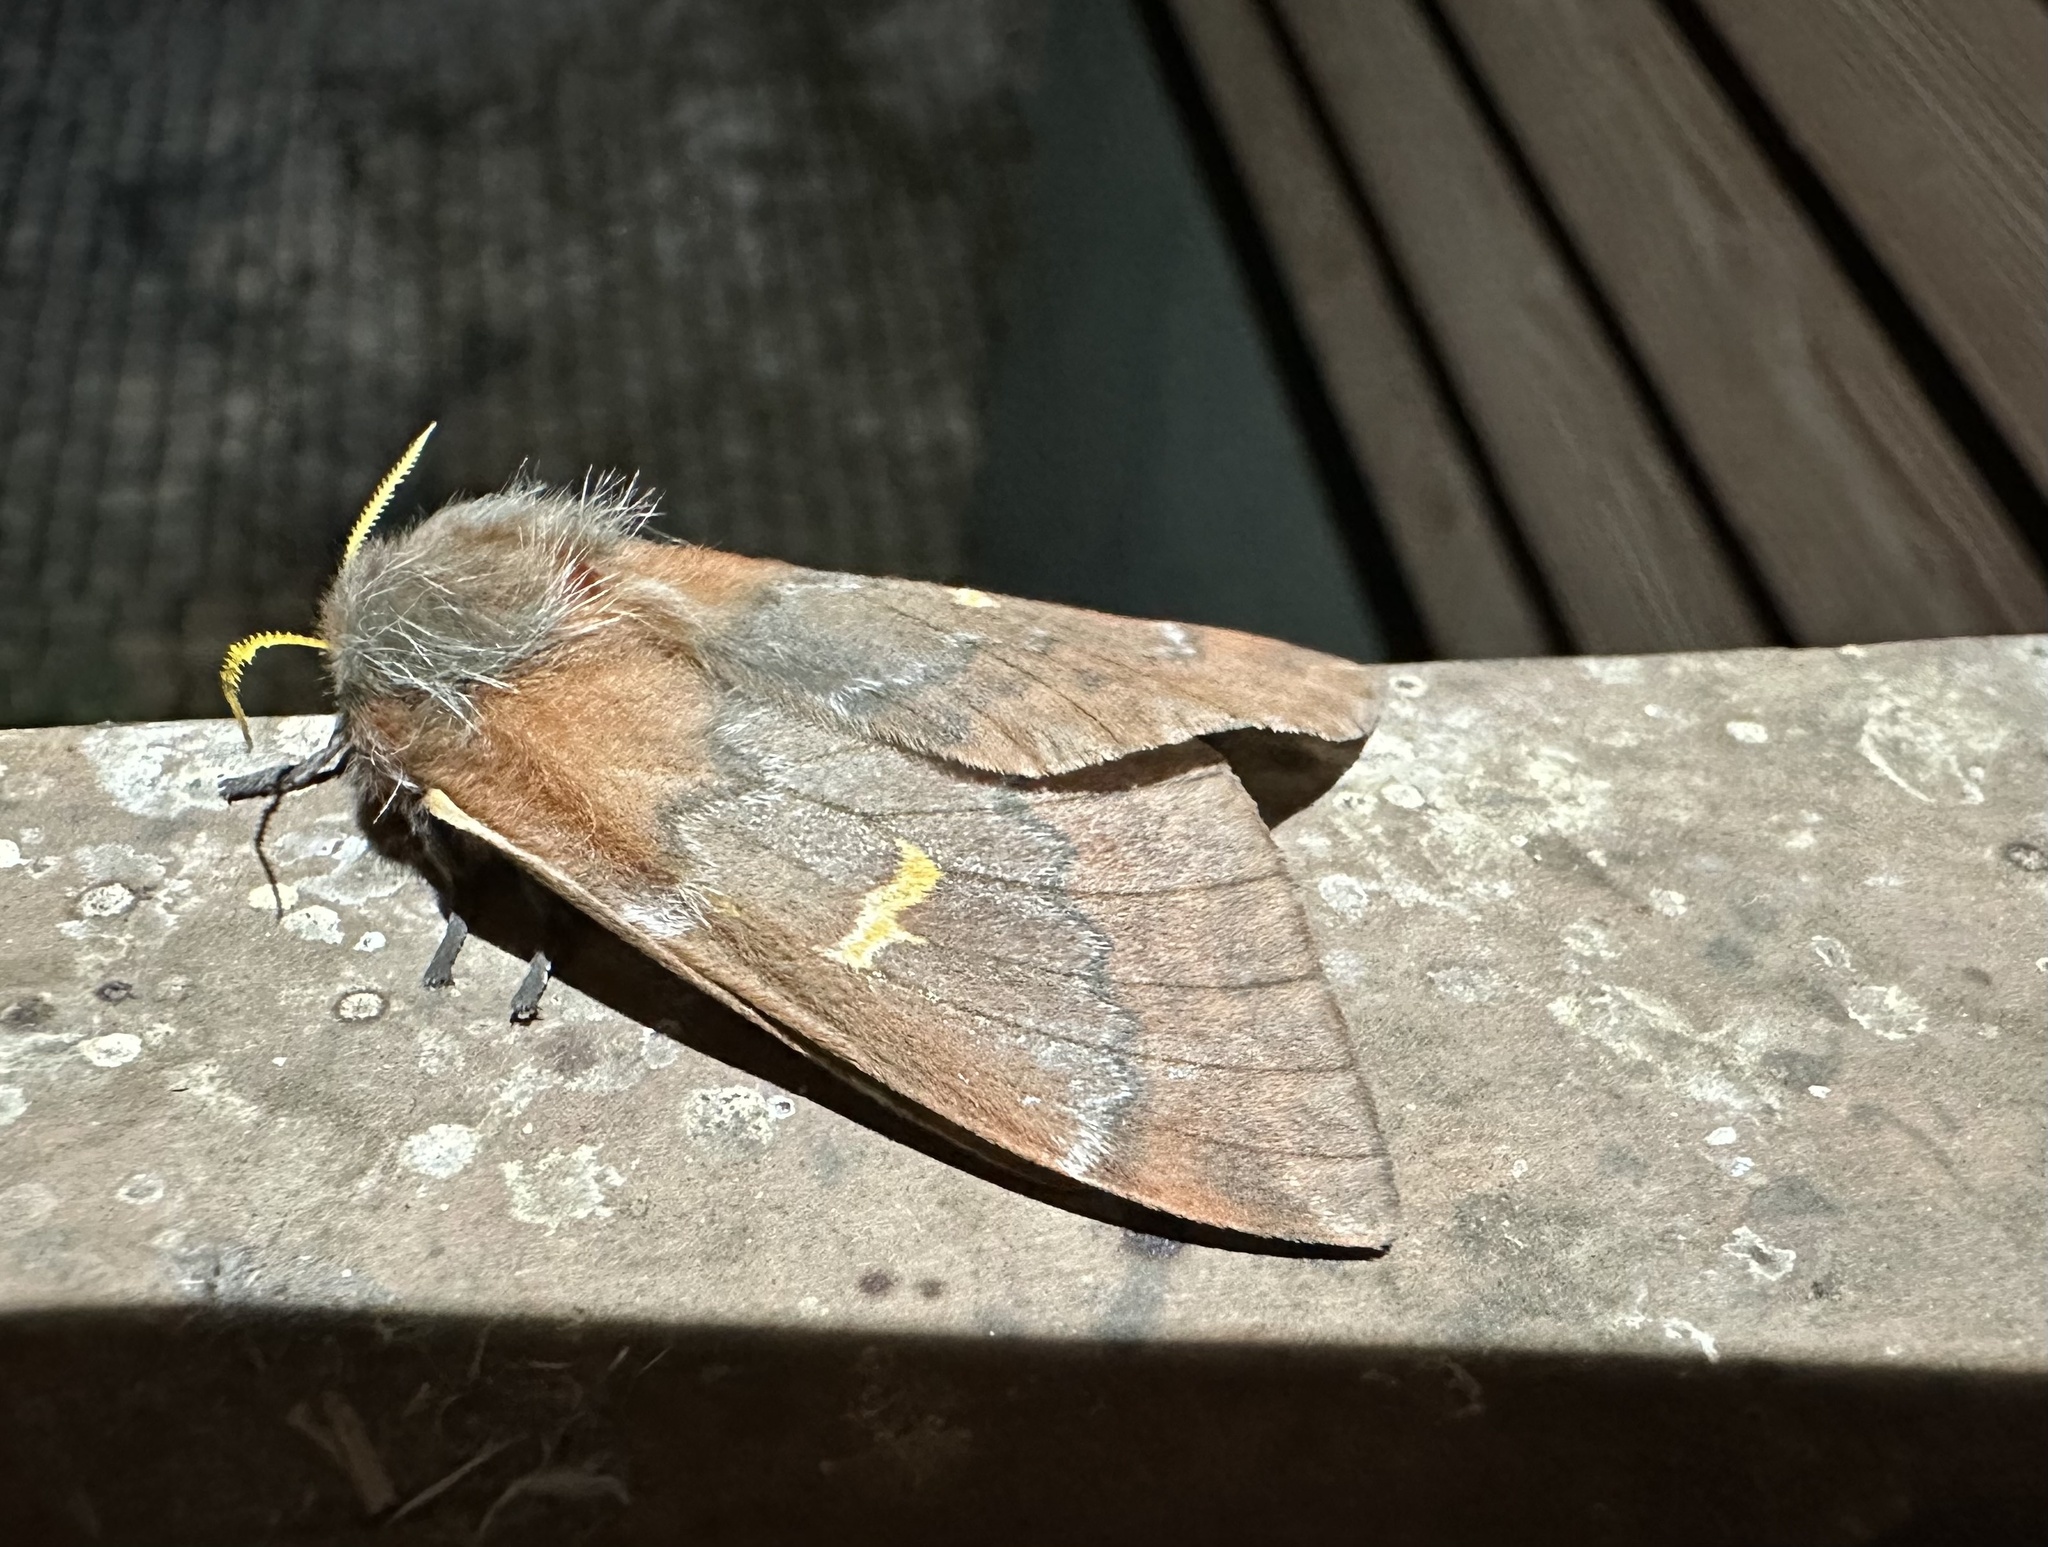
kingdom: Animalia
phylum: Arthropoda
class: Insecta
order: Lepidoptera
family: Saturniidae
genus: Ormiscodes
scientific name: Ormiscodes joiceyi
